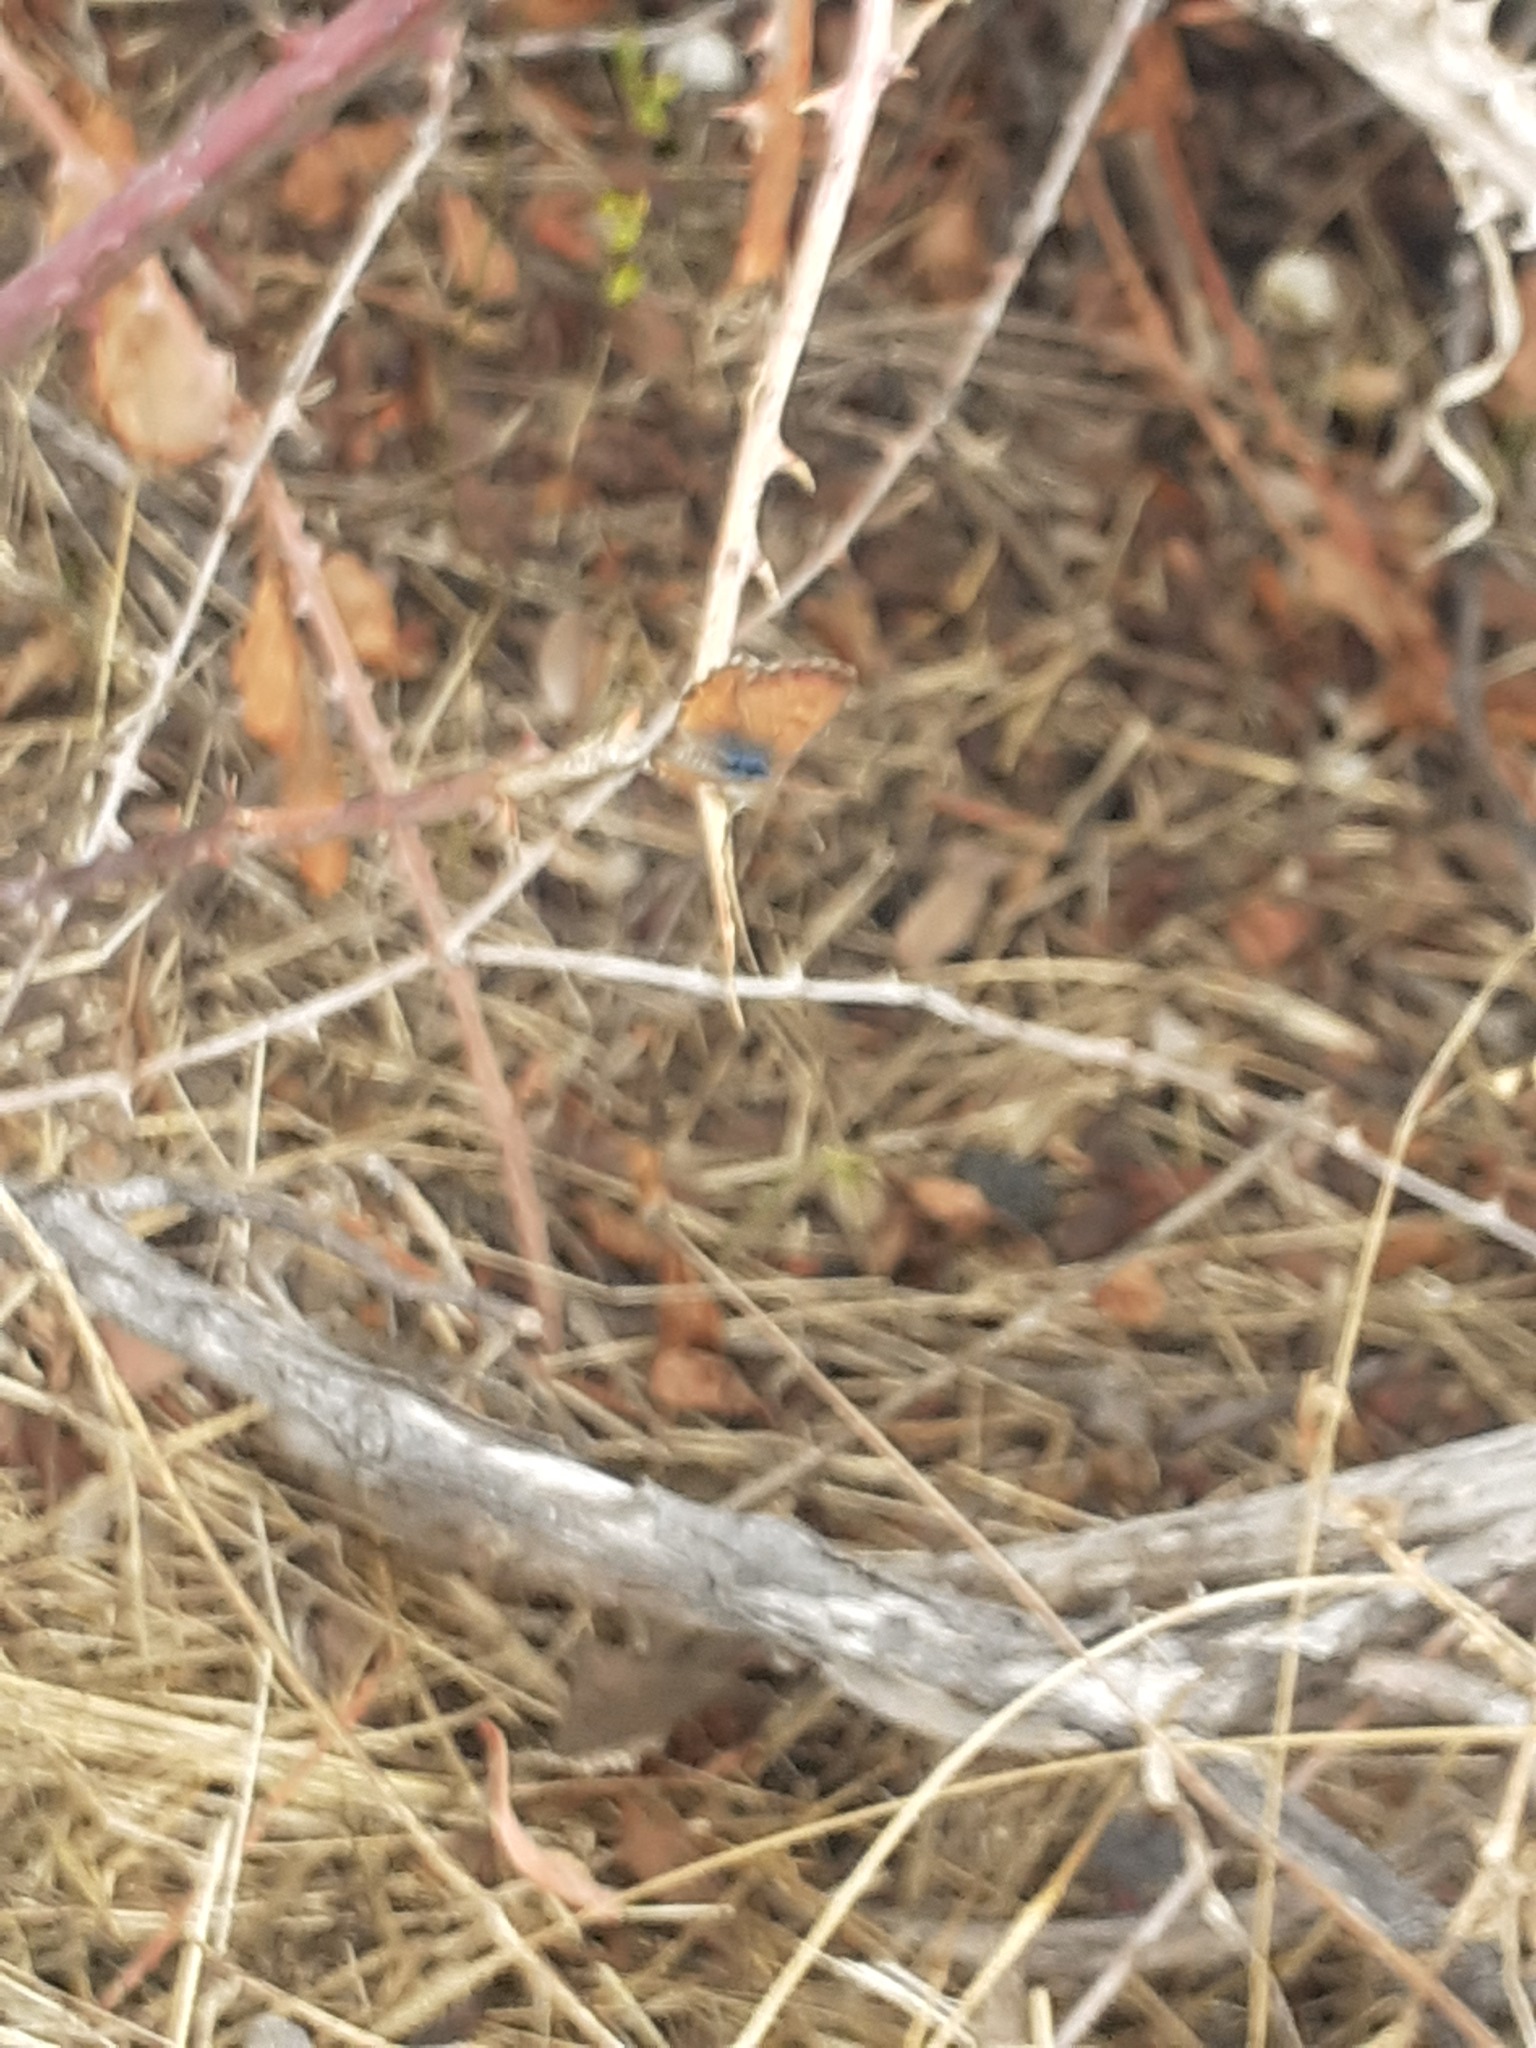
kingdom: Animalia
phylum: Arthropoda
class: Insecta
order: Lepidoptera
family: Lycaenidae
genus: Cyclyrius
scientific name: Cyclyrius webbianus
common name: Canary blue
